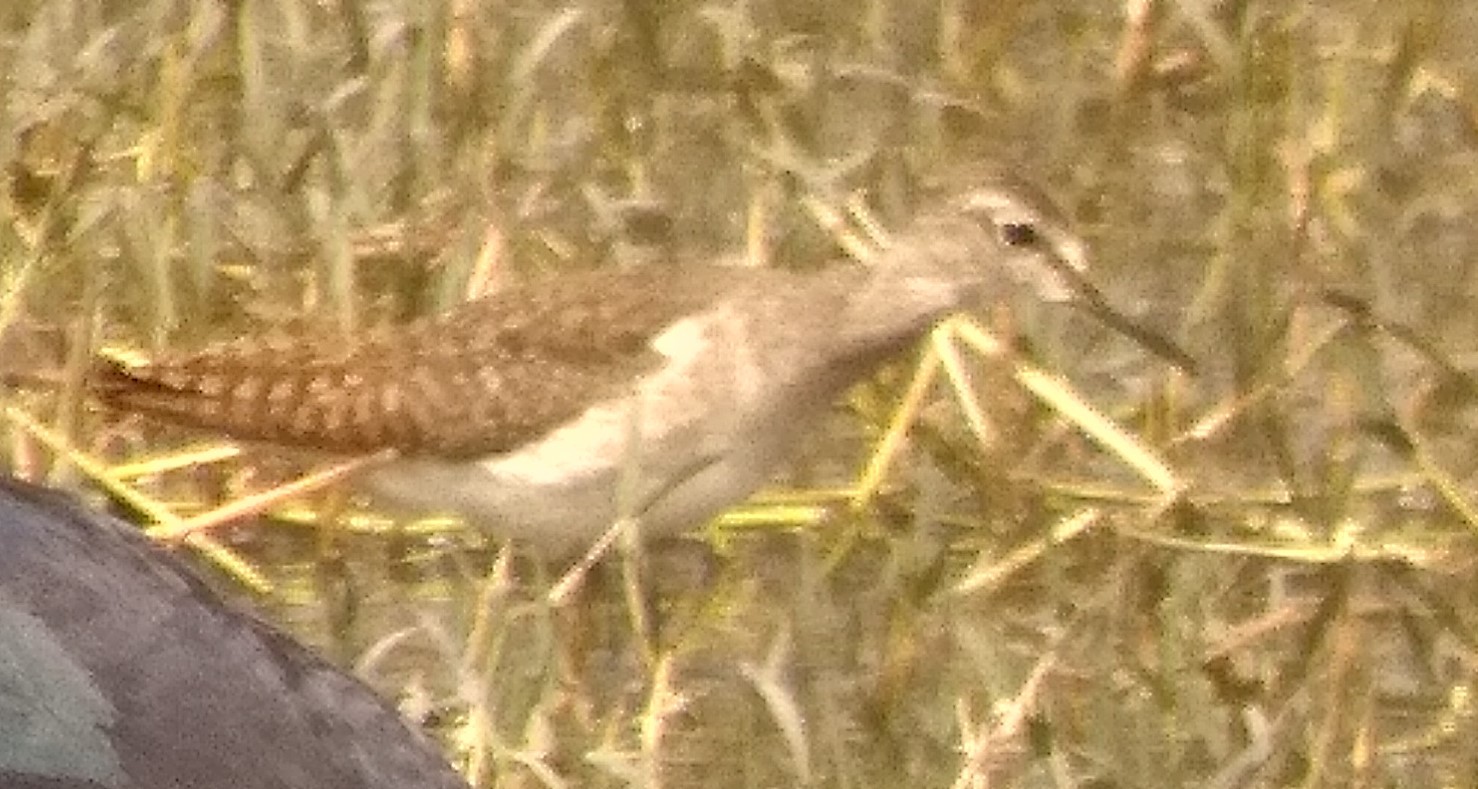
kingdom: Animalia
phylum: Chordata
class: Aves
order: Charadriiformes
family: Scolopacidae
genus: Tringa
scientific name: Tringa glareola
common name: Wood sandpiper
